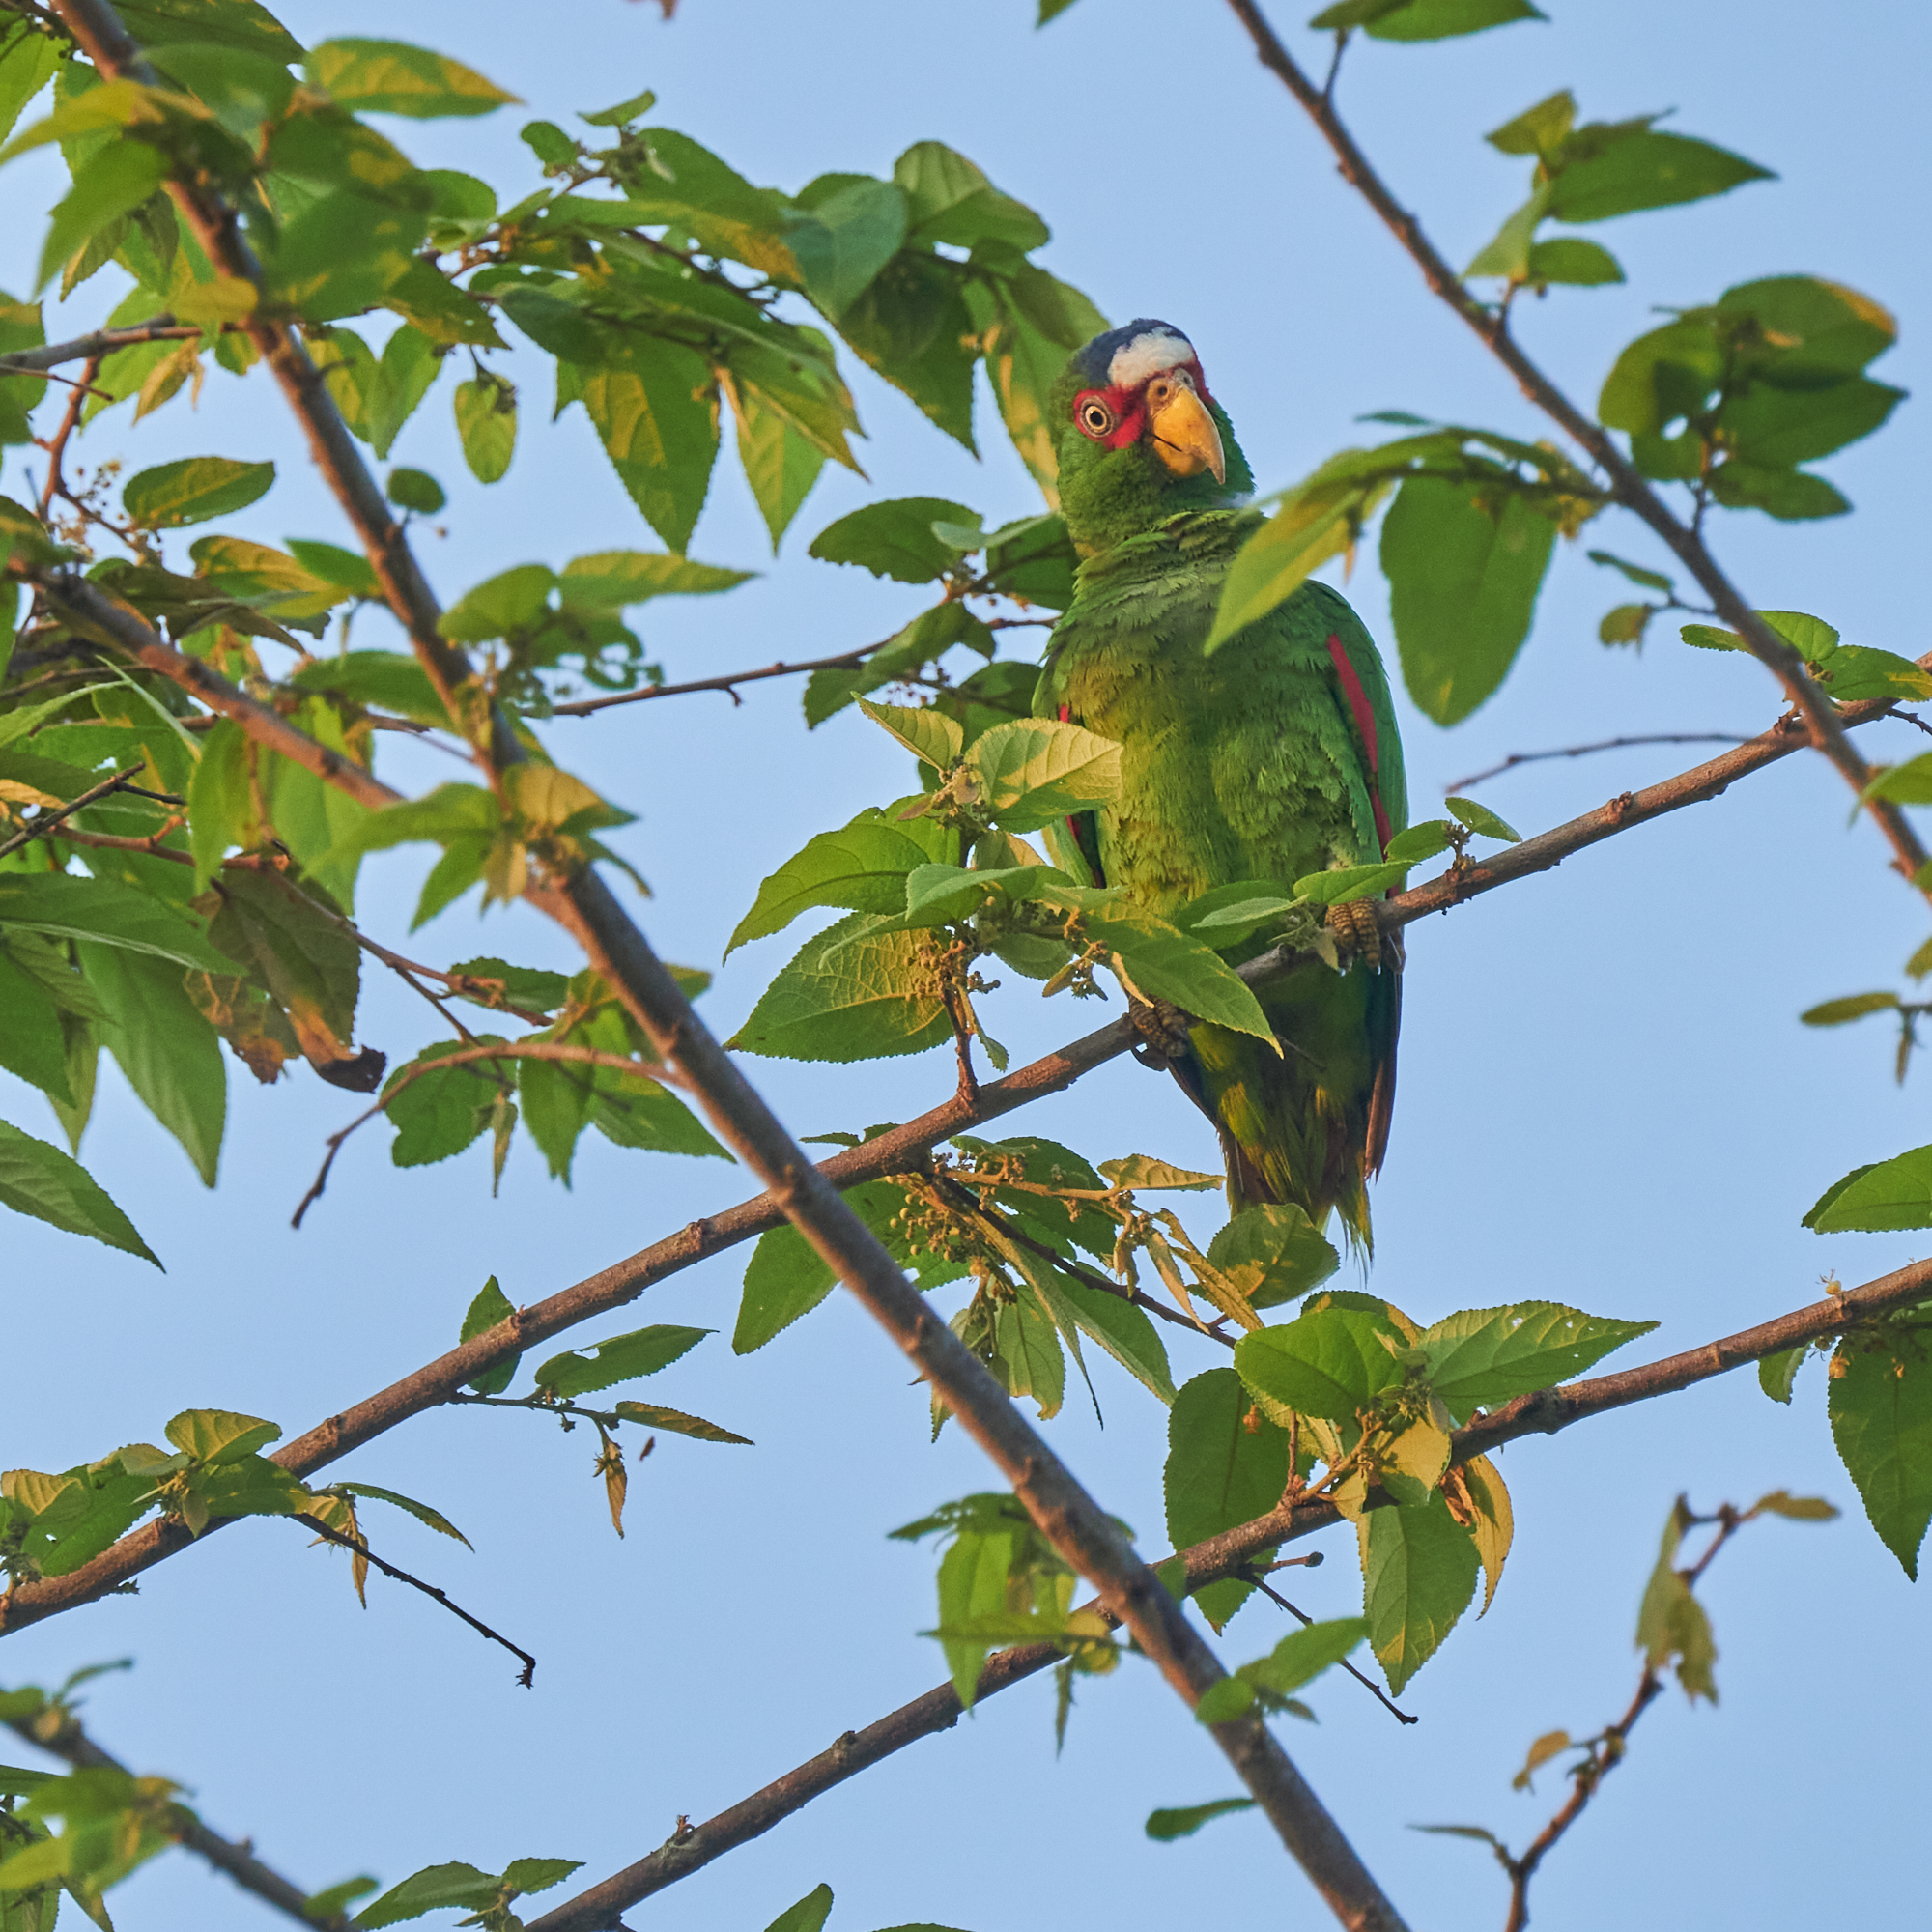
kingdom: Animalia
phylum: Chordata
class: Aves
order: Psittaciformes
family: Psittacidae
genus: Amazona
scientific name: Amazona albifrons
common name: White-fronted amazon
